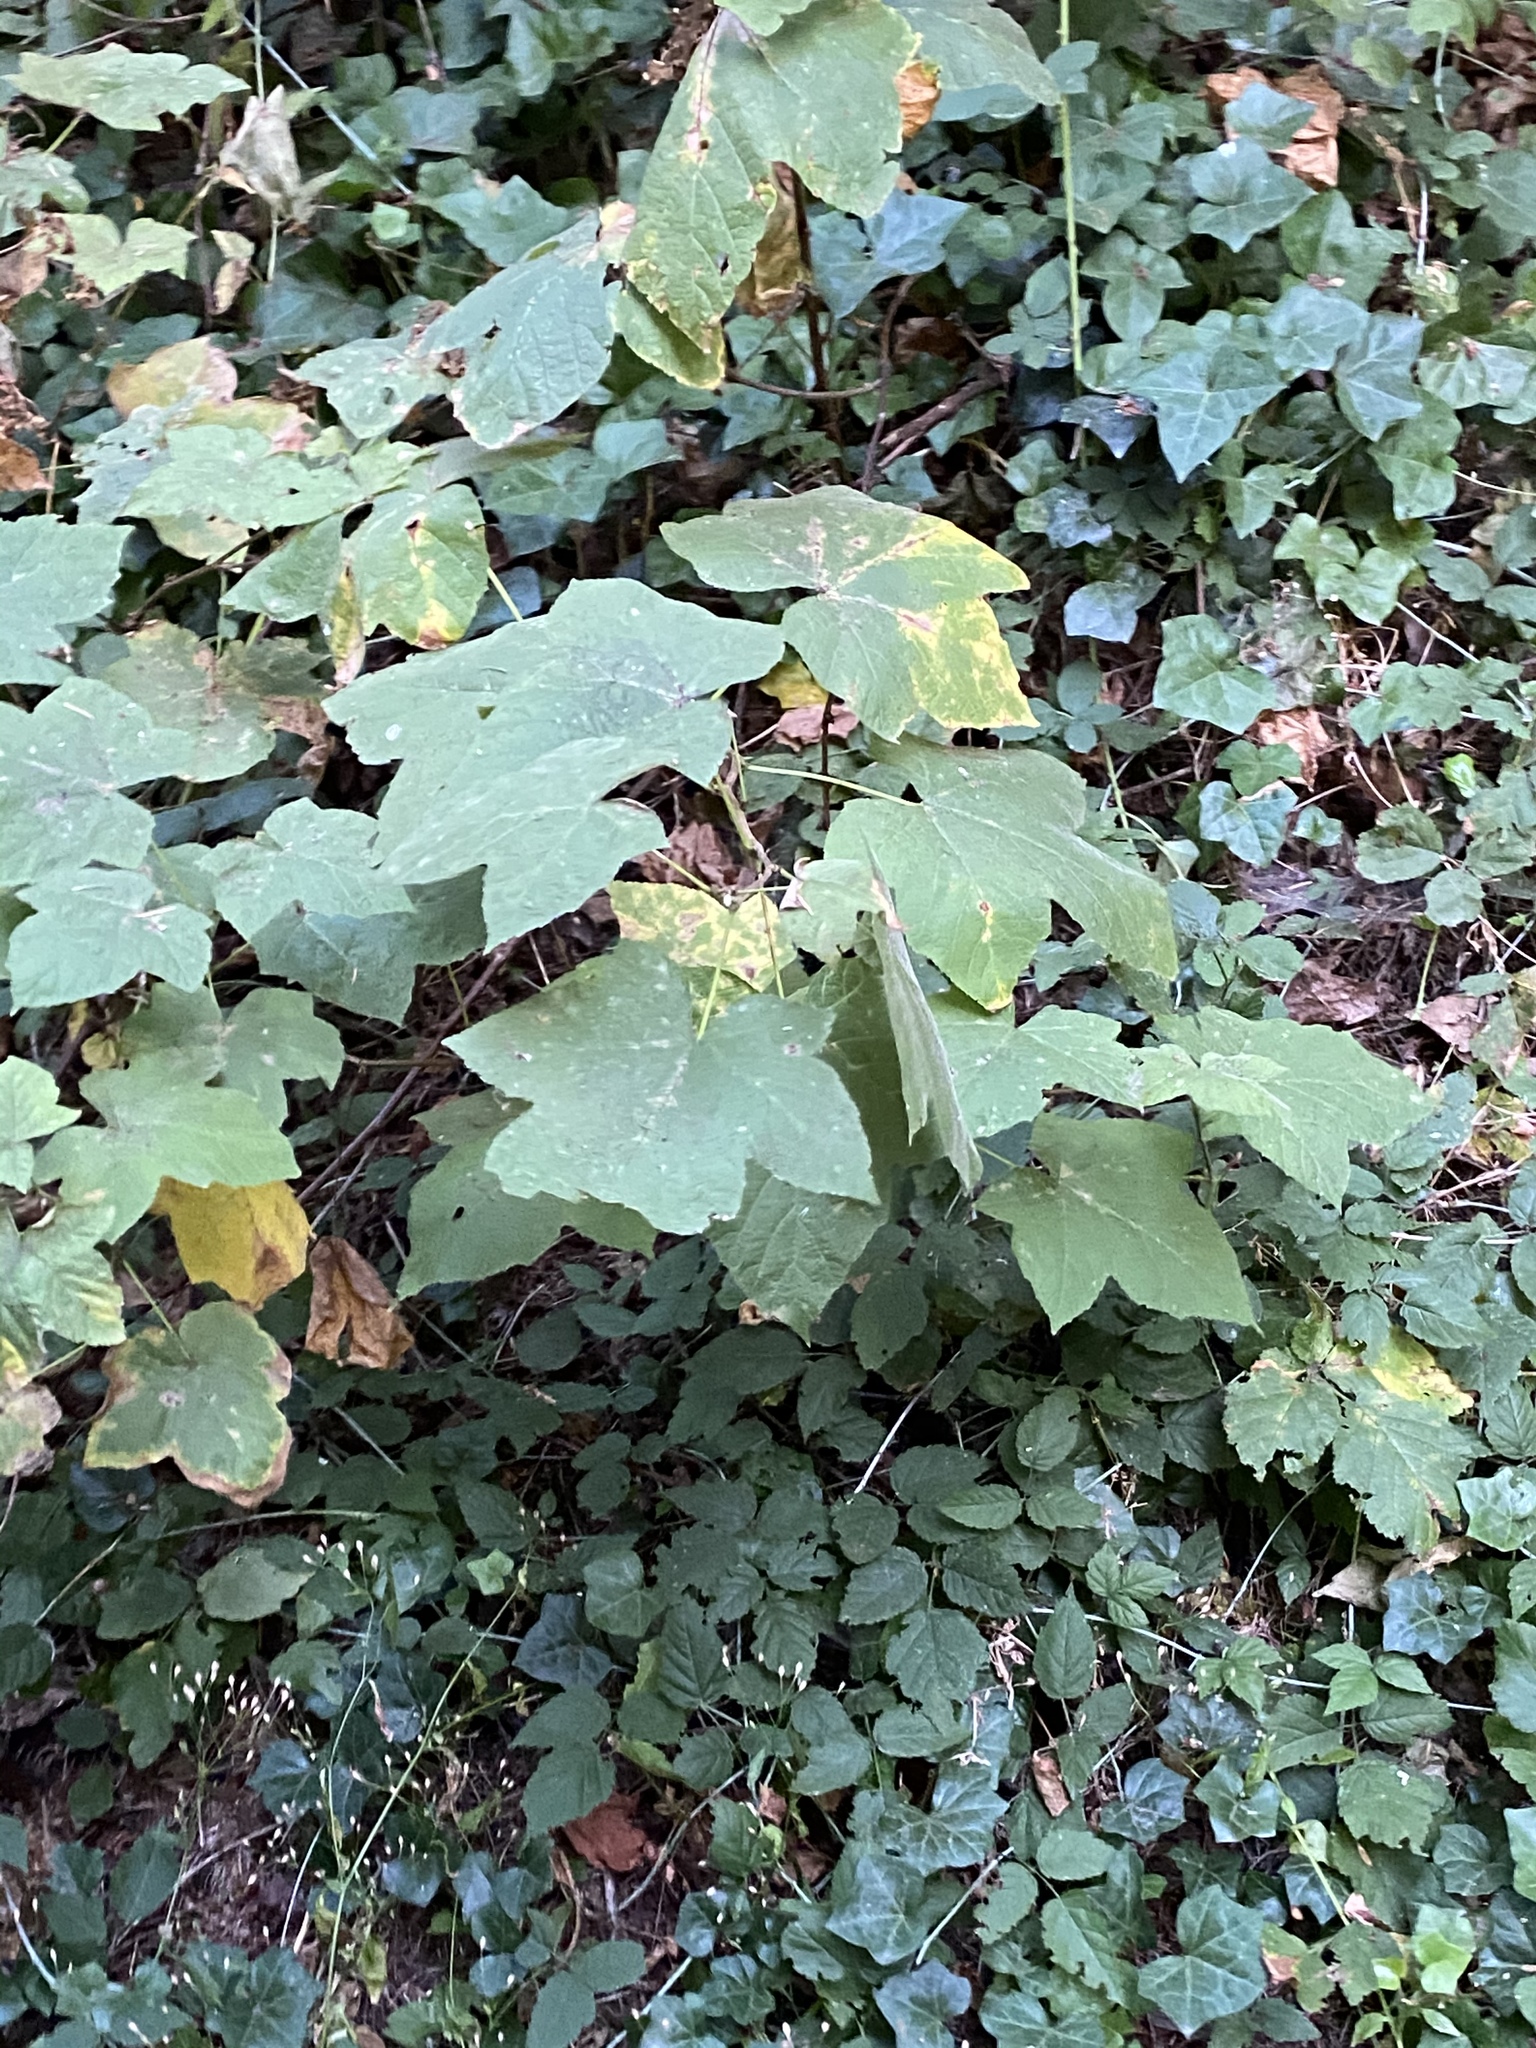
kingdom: Plantae
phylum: Tracheophyta
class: Magnoliopsida
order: Rosales
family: Rosaceae
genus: Rubus
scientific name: Rubus parviflorus
